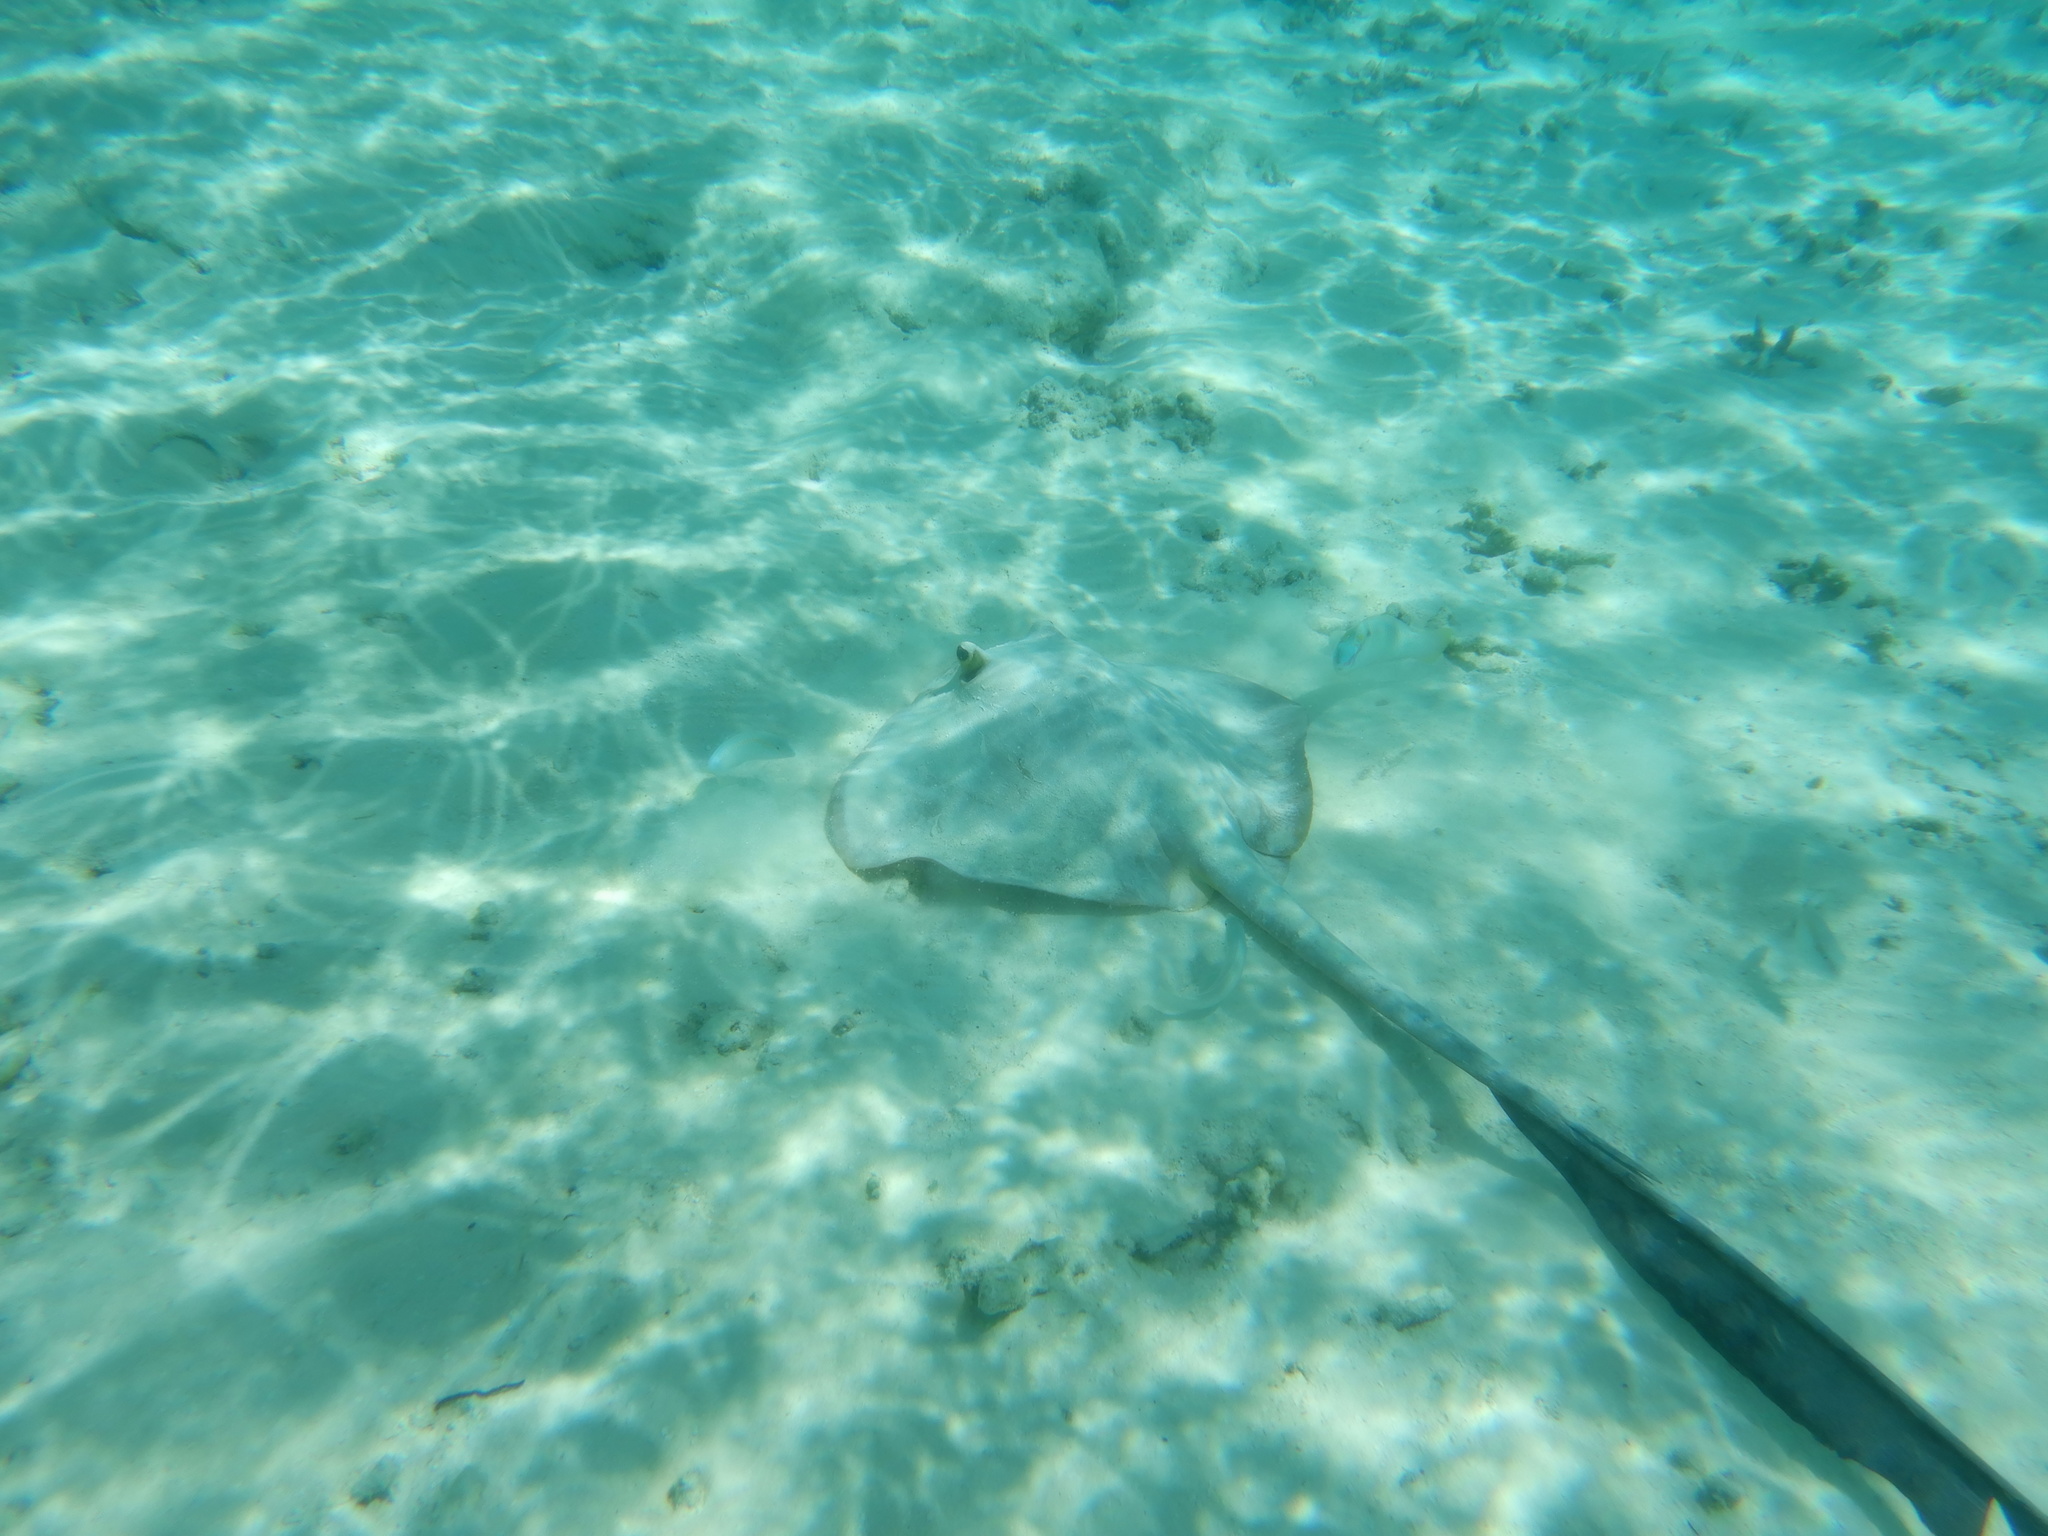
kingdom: Animalia
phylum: Chordata
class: Elasmobranchii
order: Myliobatiformes
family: Dasyatidae
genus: Pastinachus
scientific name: Pastinachus ater
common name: Banana-tail ray
